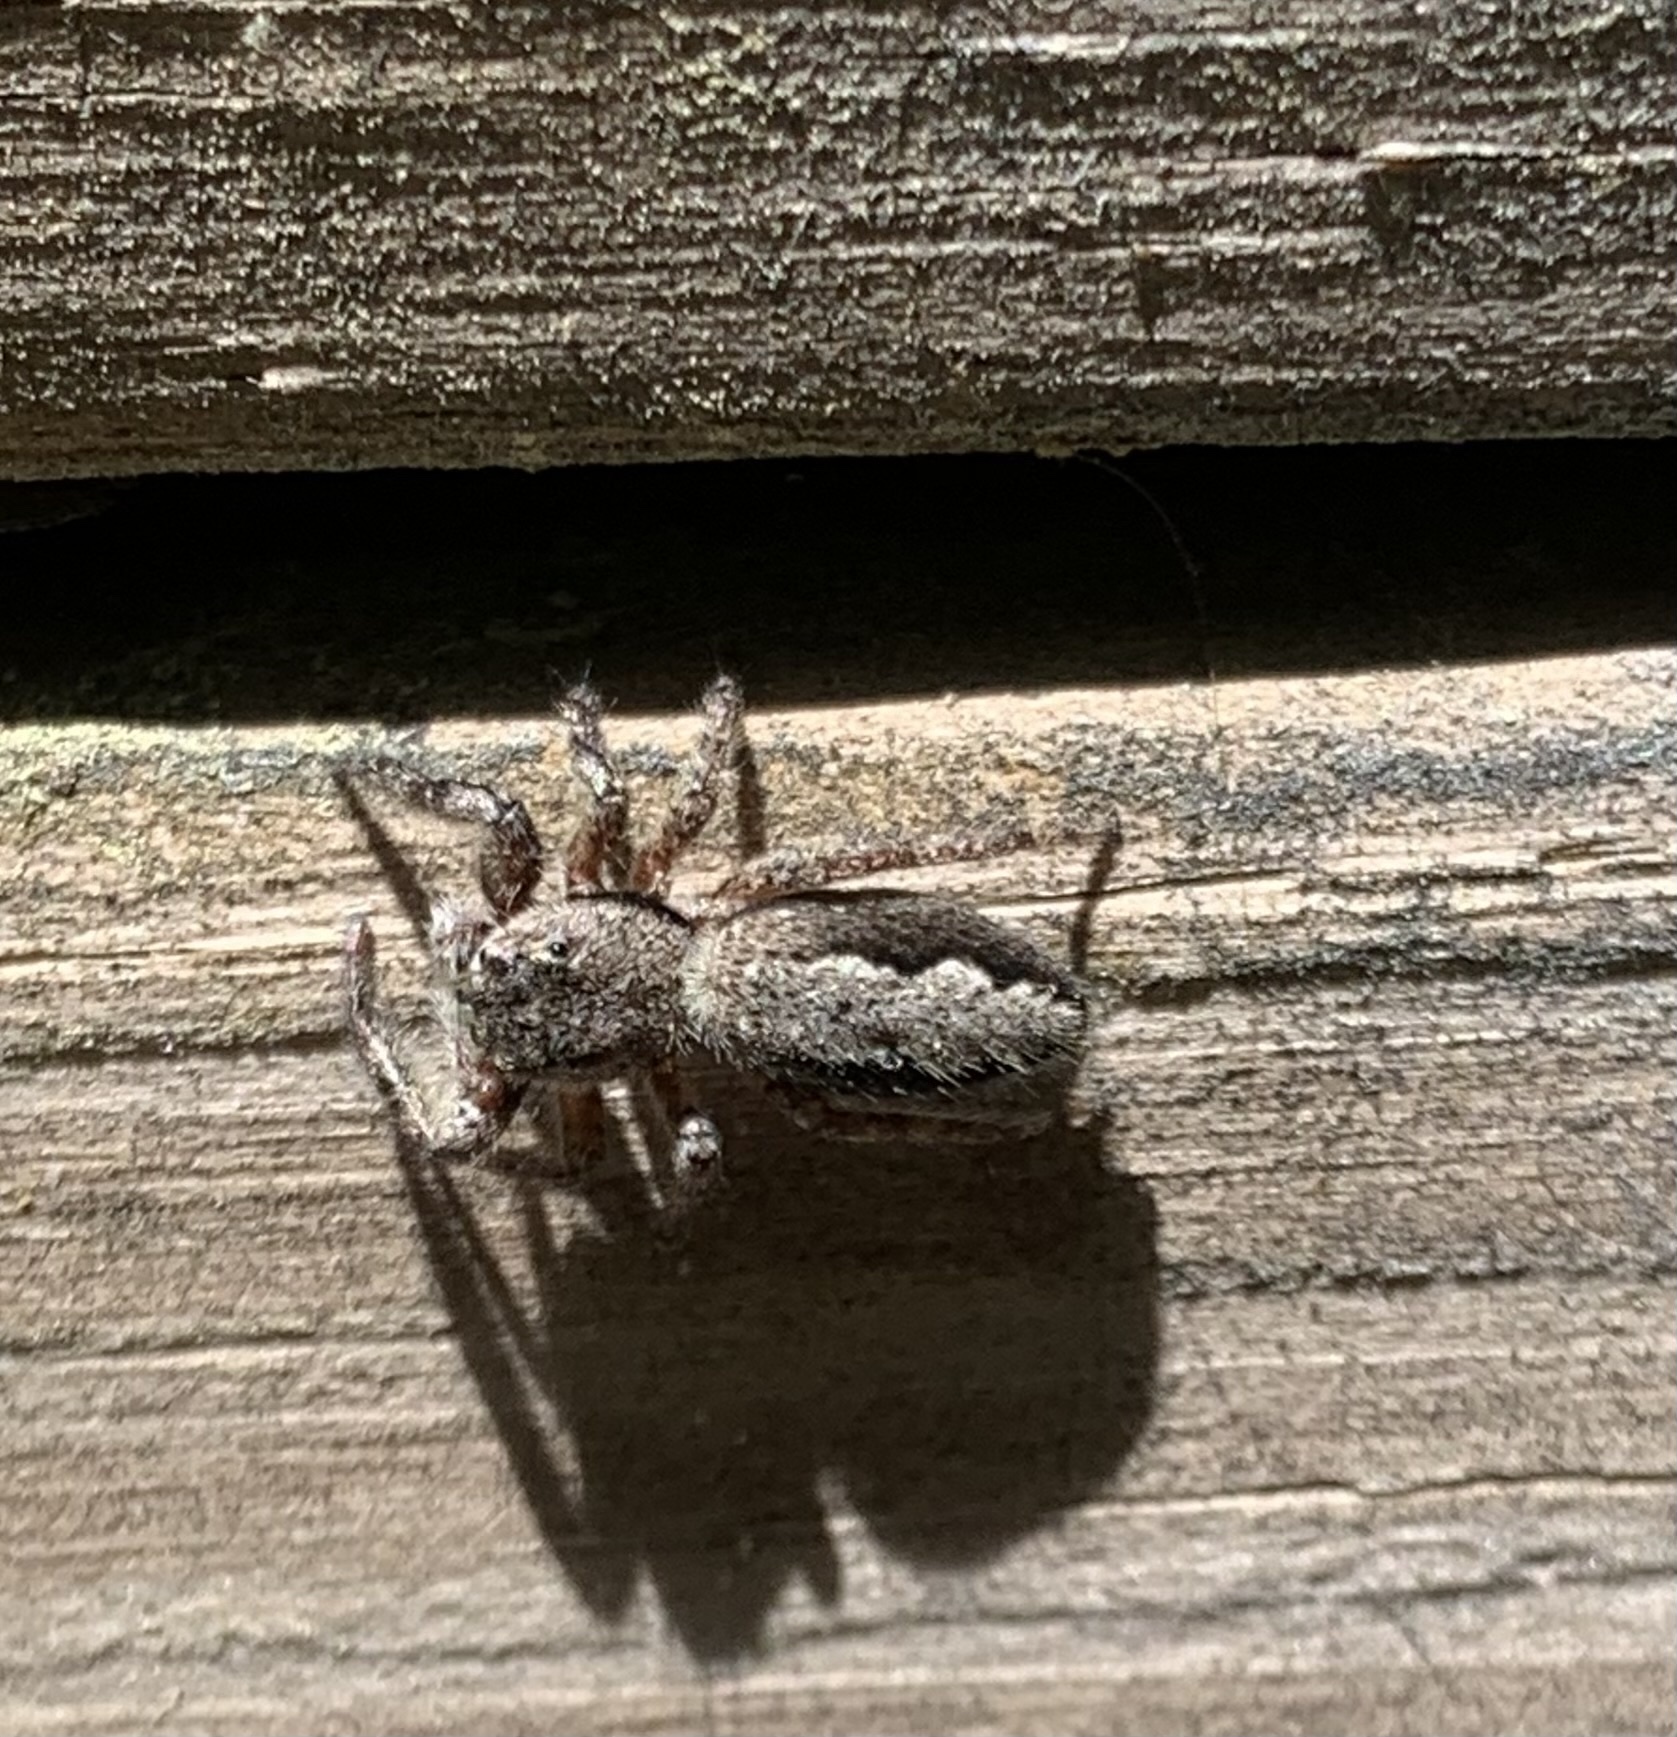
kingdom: Animalia
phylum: Arthropoda
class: Arachnida
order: Araneae
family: Salticidae
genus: Platycryptus
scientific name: Platycryptus undatus
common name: Tan jumping spider
